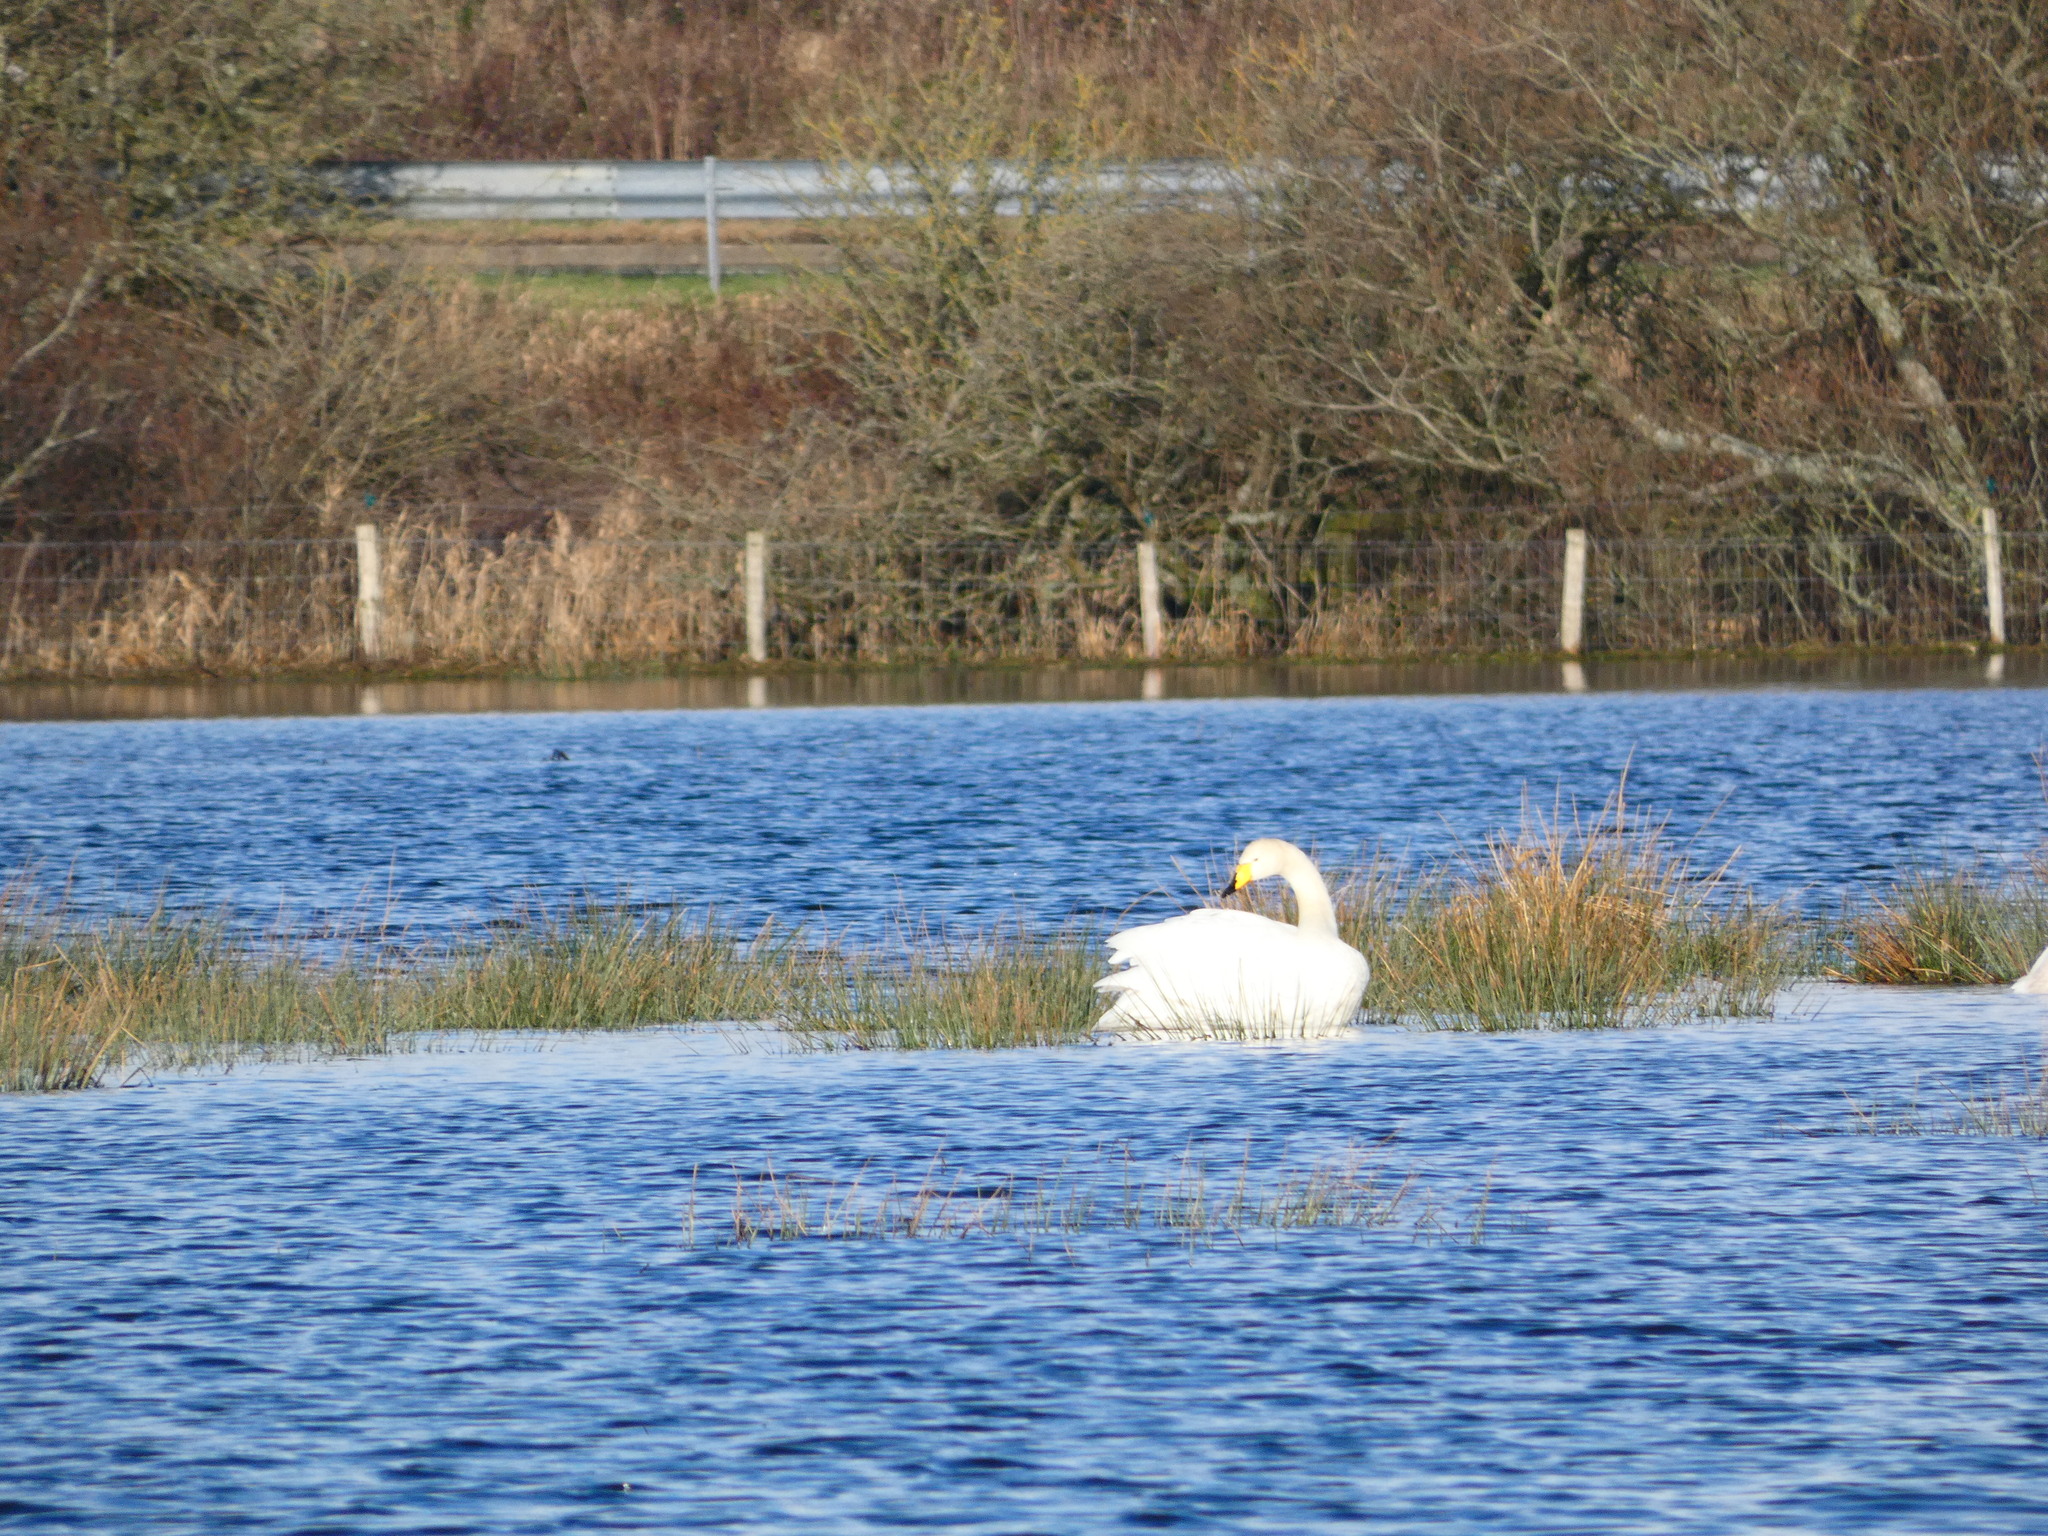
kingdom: Animalia
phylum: Chordata
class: Aves
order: Anseriformes
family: Anatidae
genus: Cygnus
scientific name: Cygnus cygnus
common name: Whooper swan
